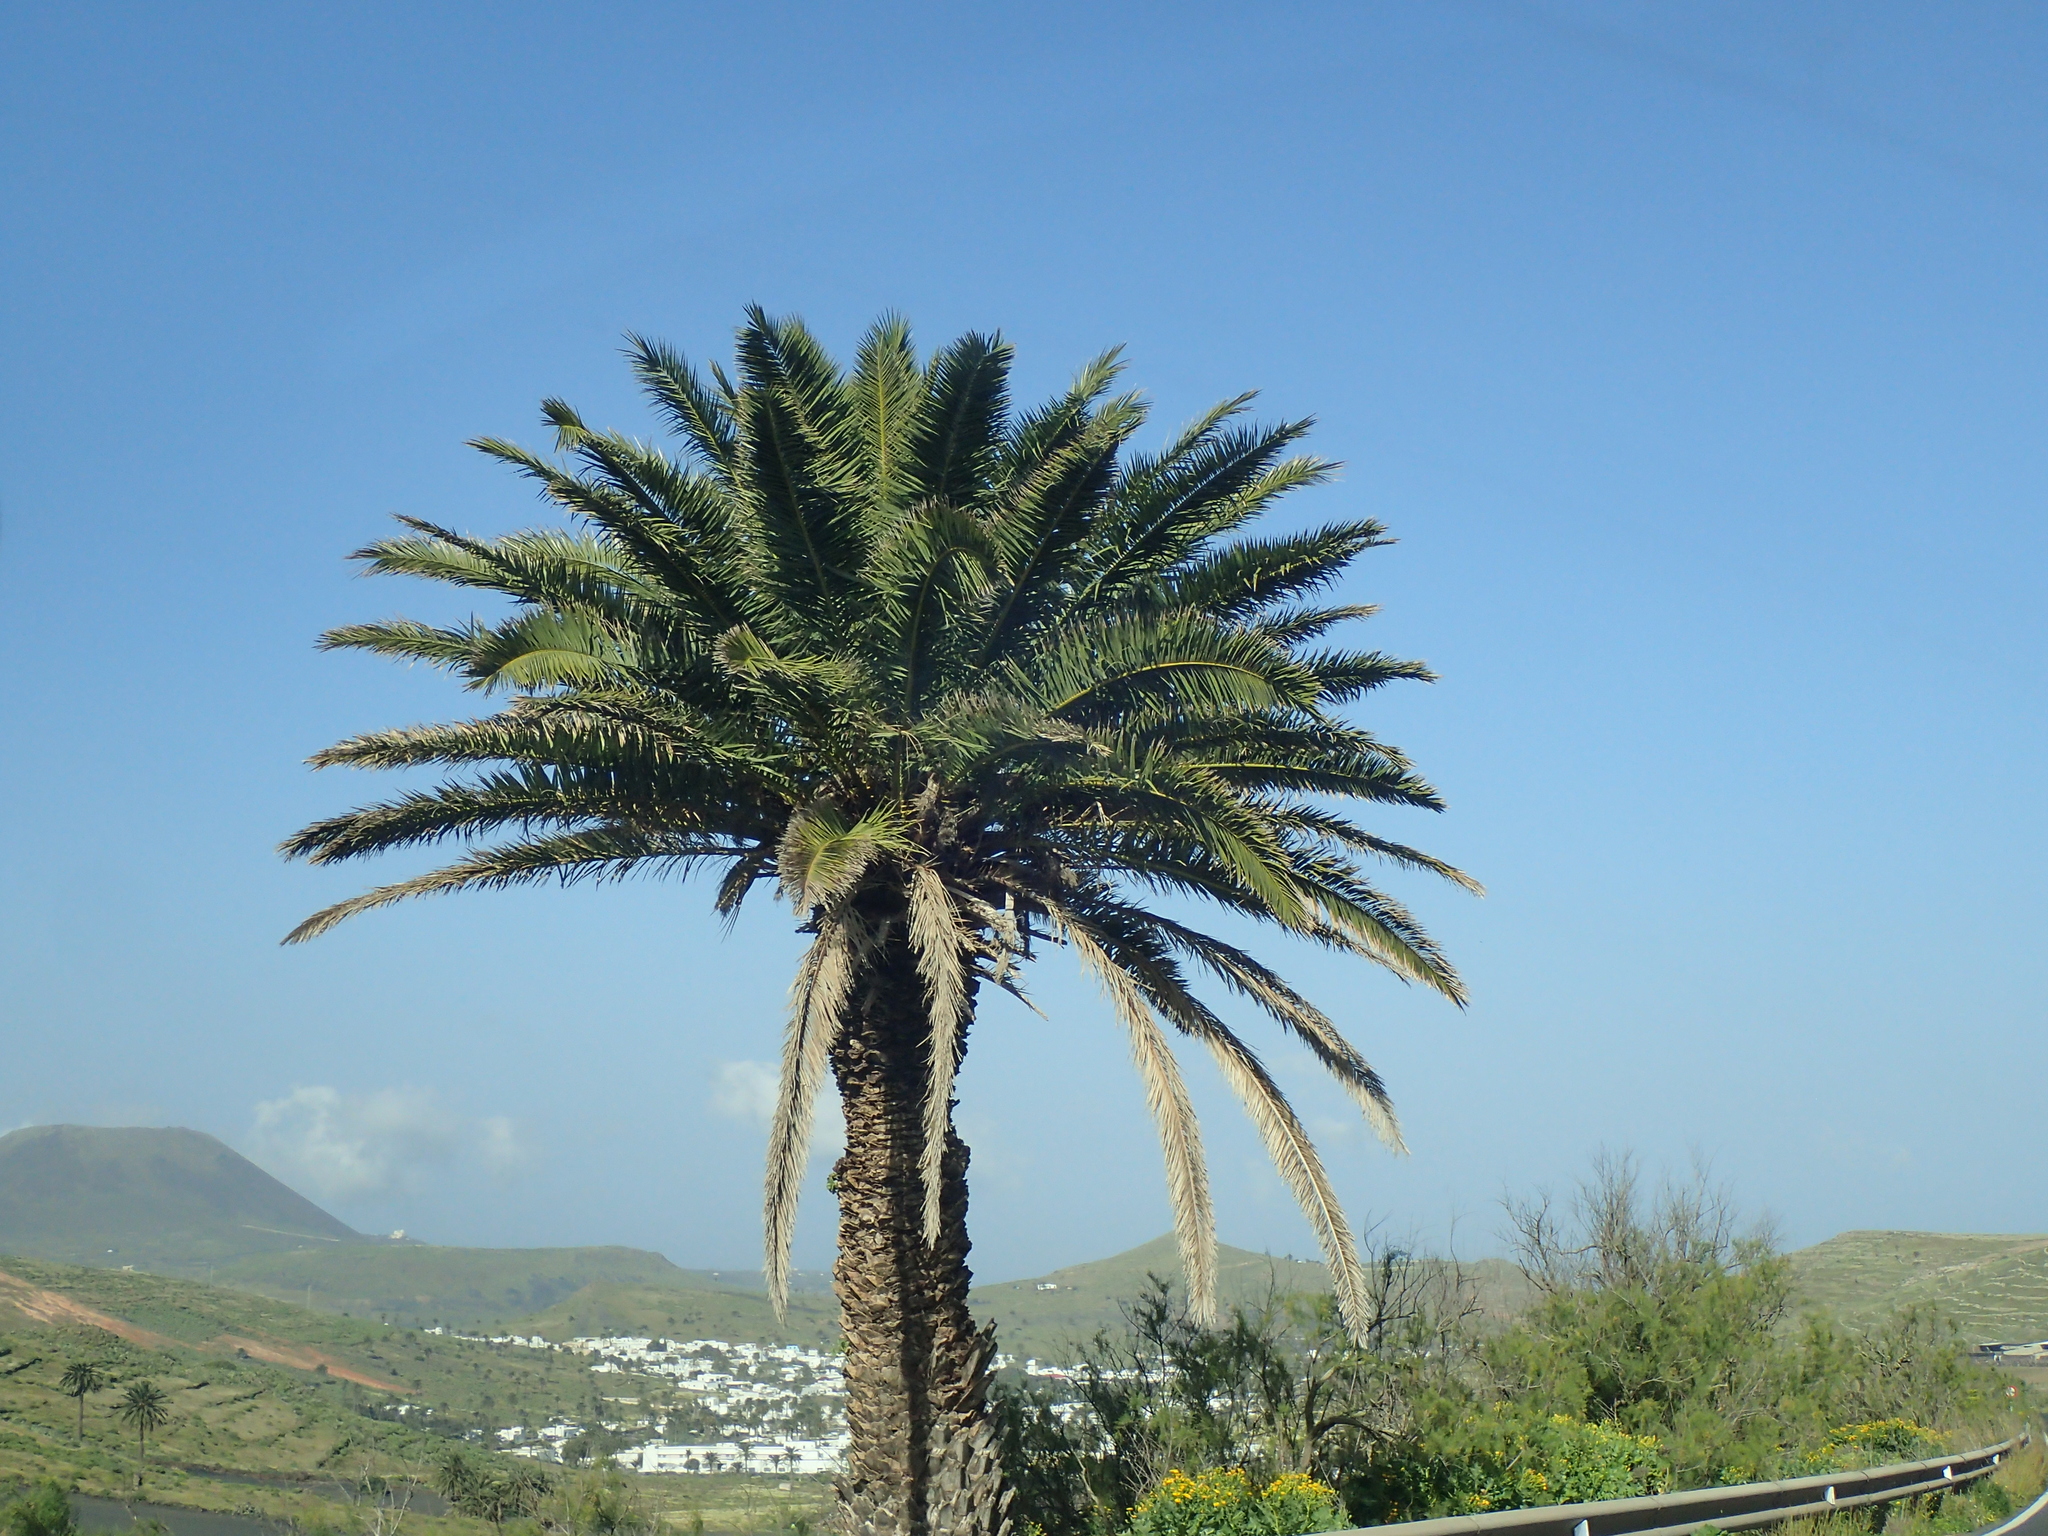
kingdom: Plantae
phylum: Tracheophyta
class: Liliopsida
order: Arecales
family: Arecaceae
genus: Phoenix
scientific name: Phoenix canariensis
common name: Canary island date palm
